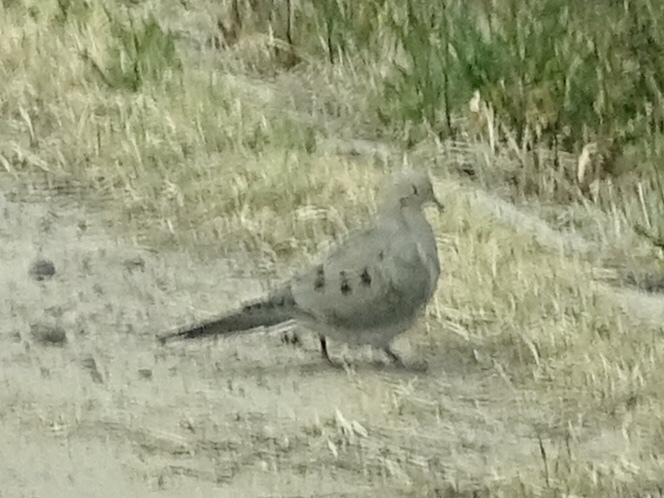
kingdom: Animalia
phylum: Chordata
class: Aves
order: Columbiformes
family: Columbidae
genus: Zenaida
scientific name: Zenaida macroura
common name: Mourning dove
